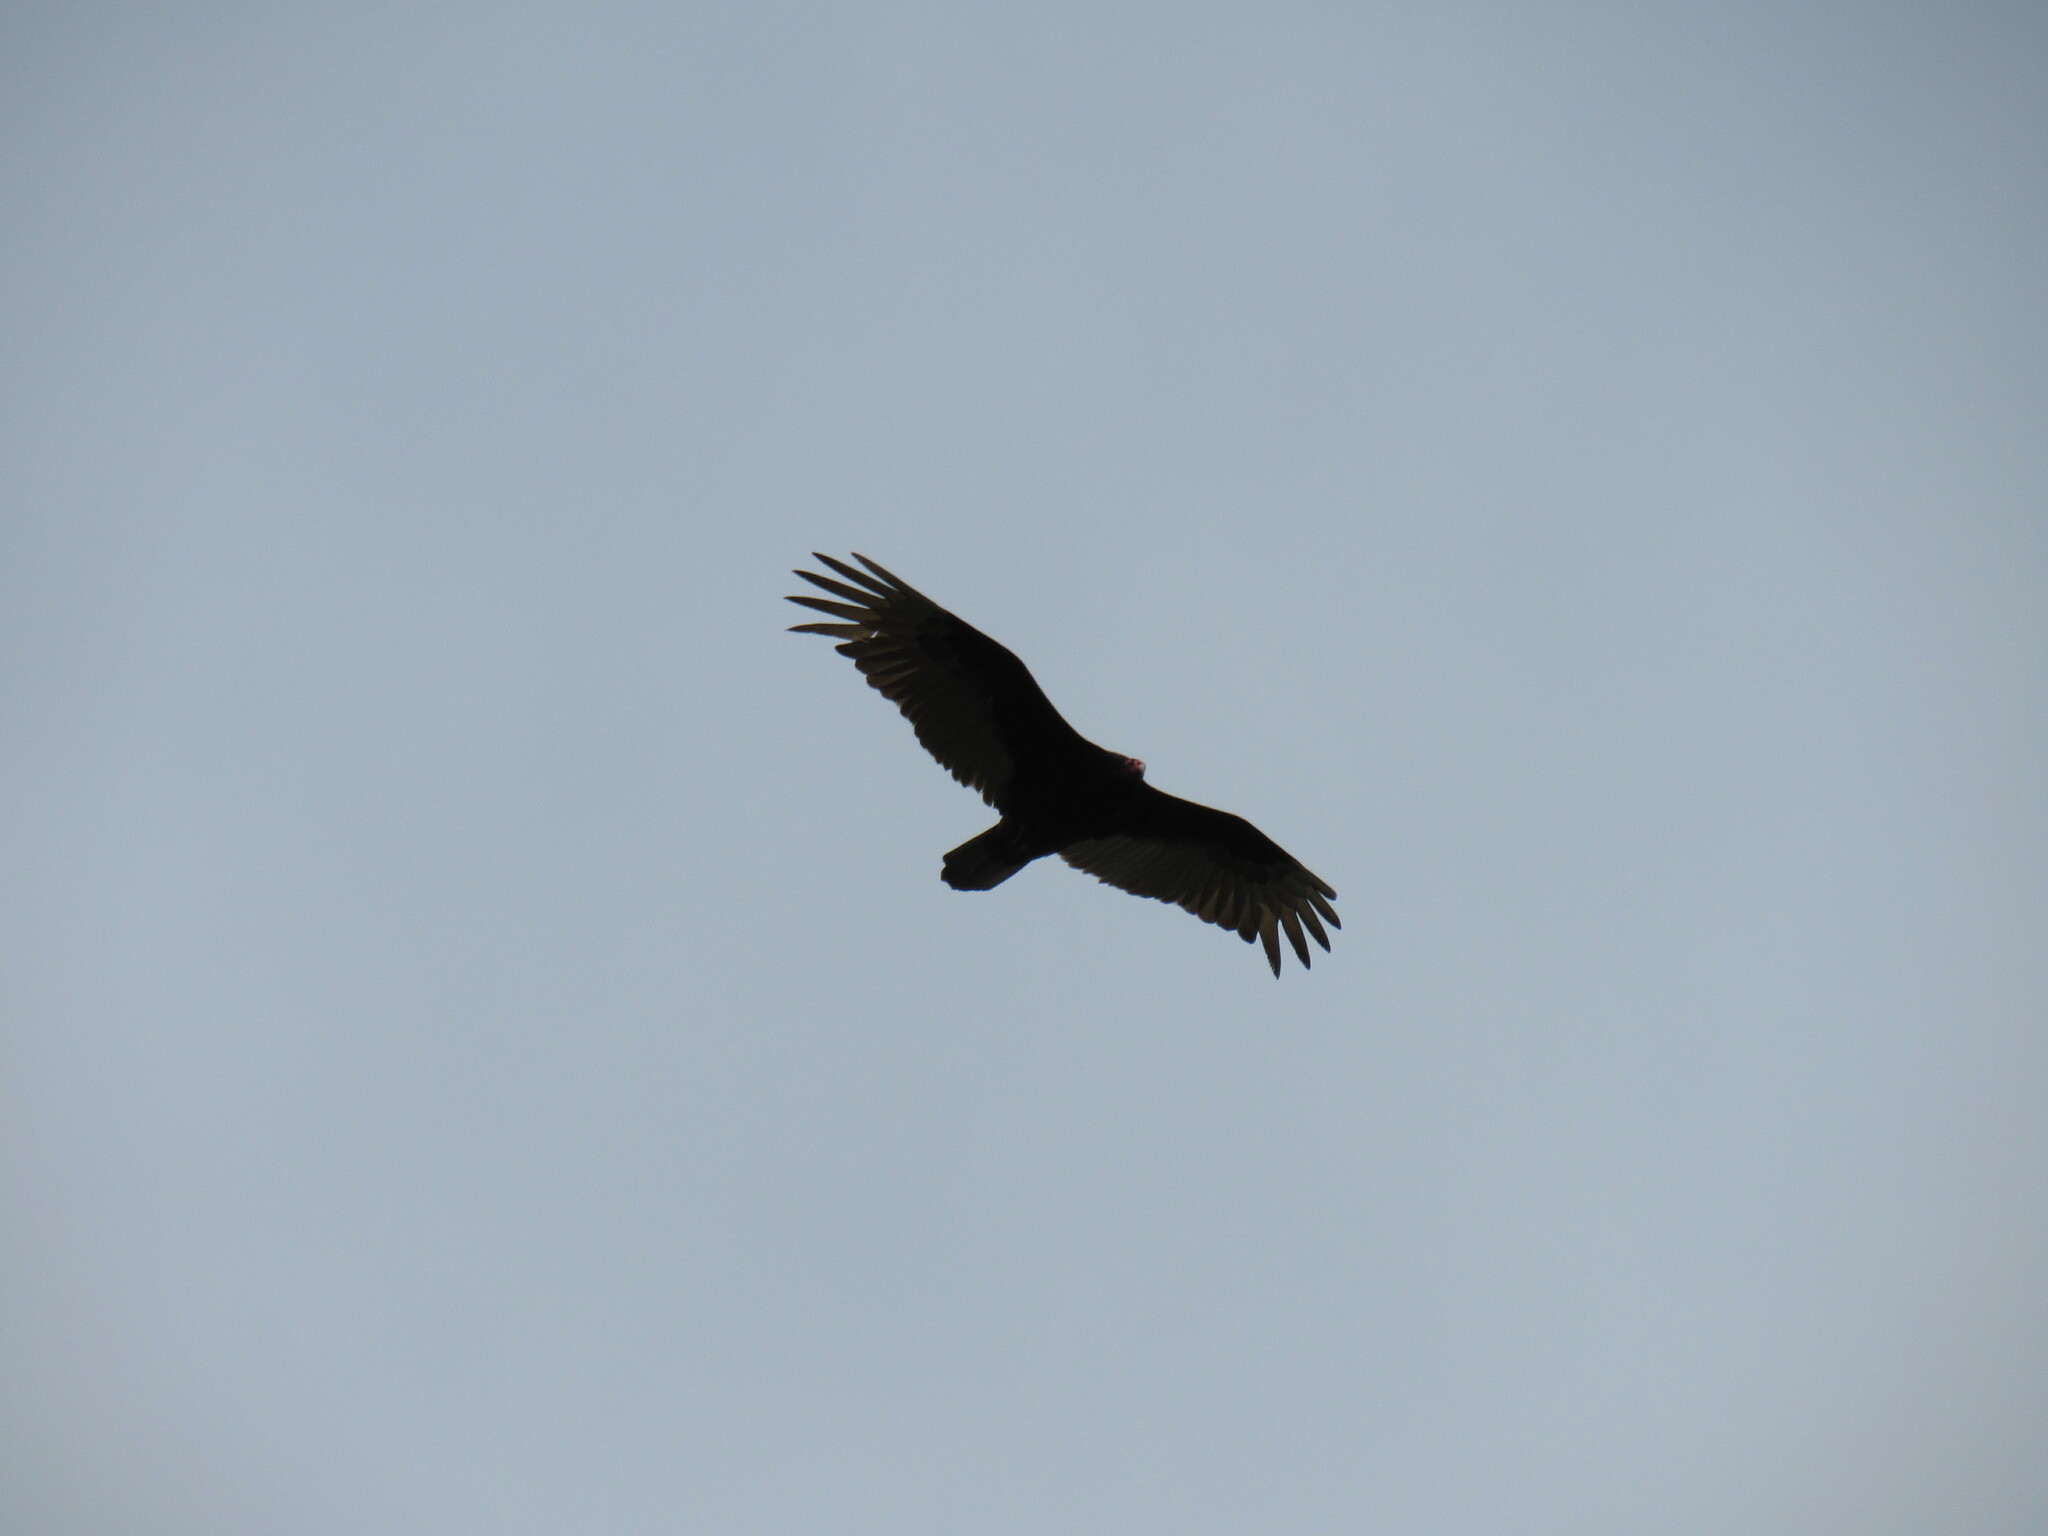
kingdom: Animalia
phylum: Chordata
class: Aves
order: Accipitriformes
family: Cathartidae
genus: Cathartes
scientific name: Cathartes aura
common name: Turkey vulture
